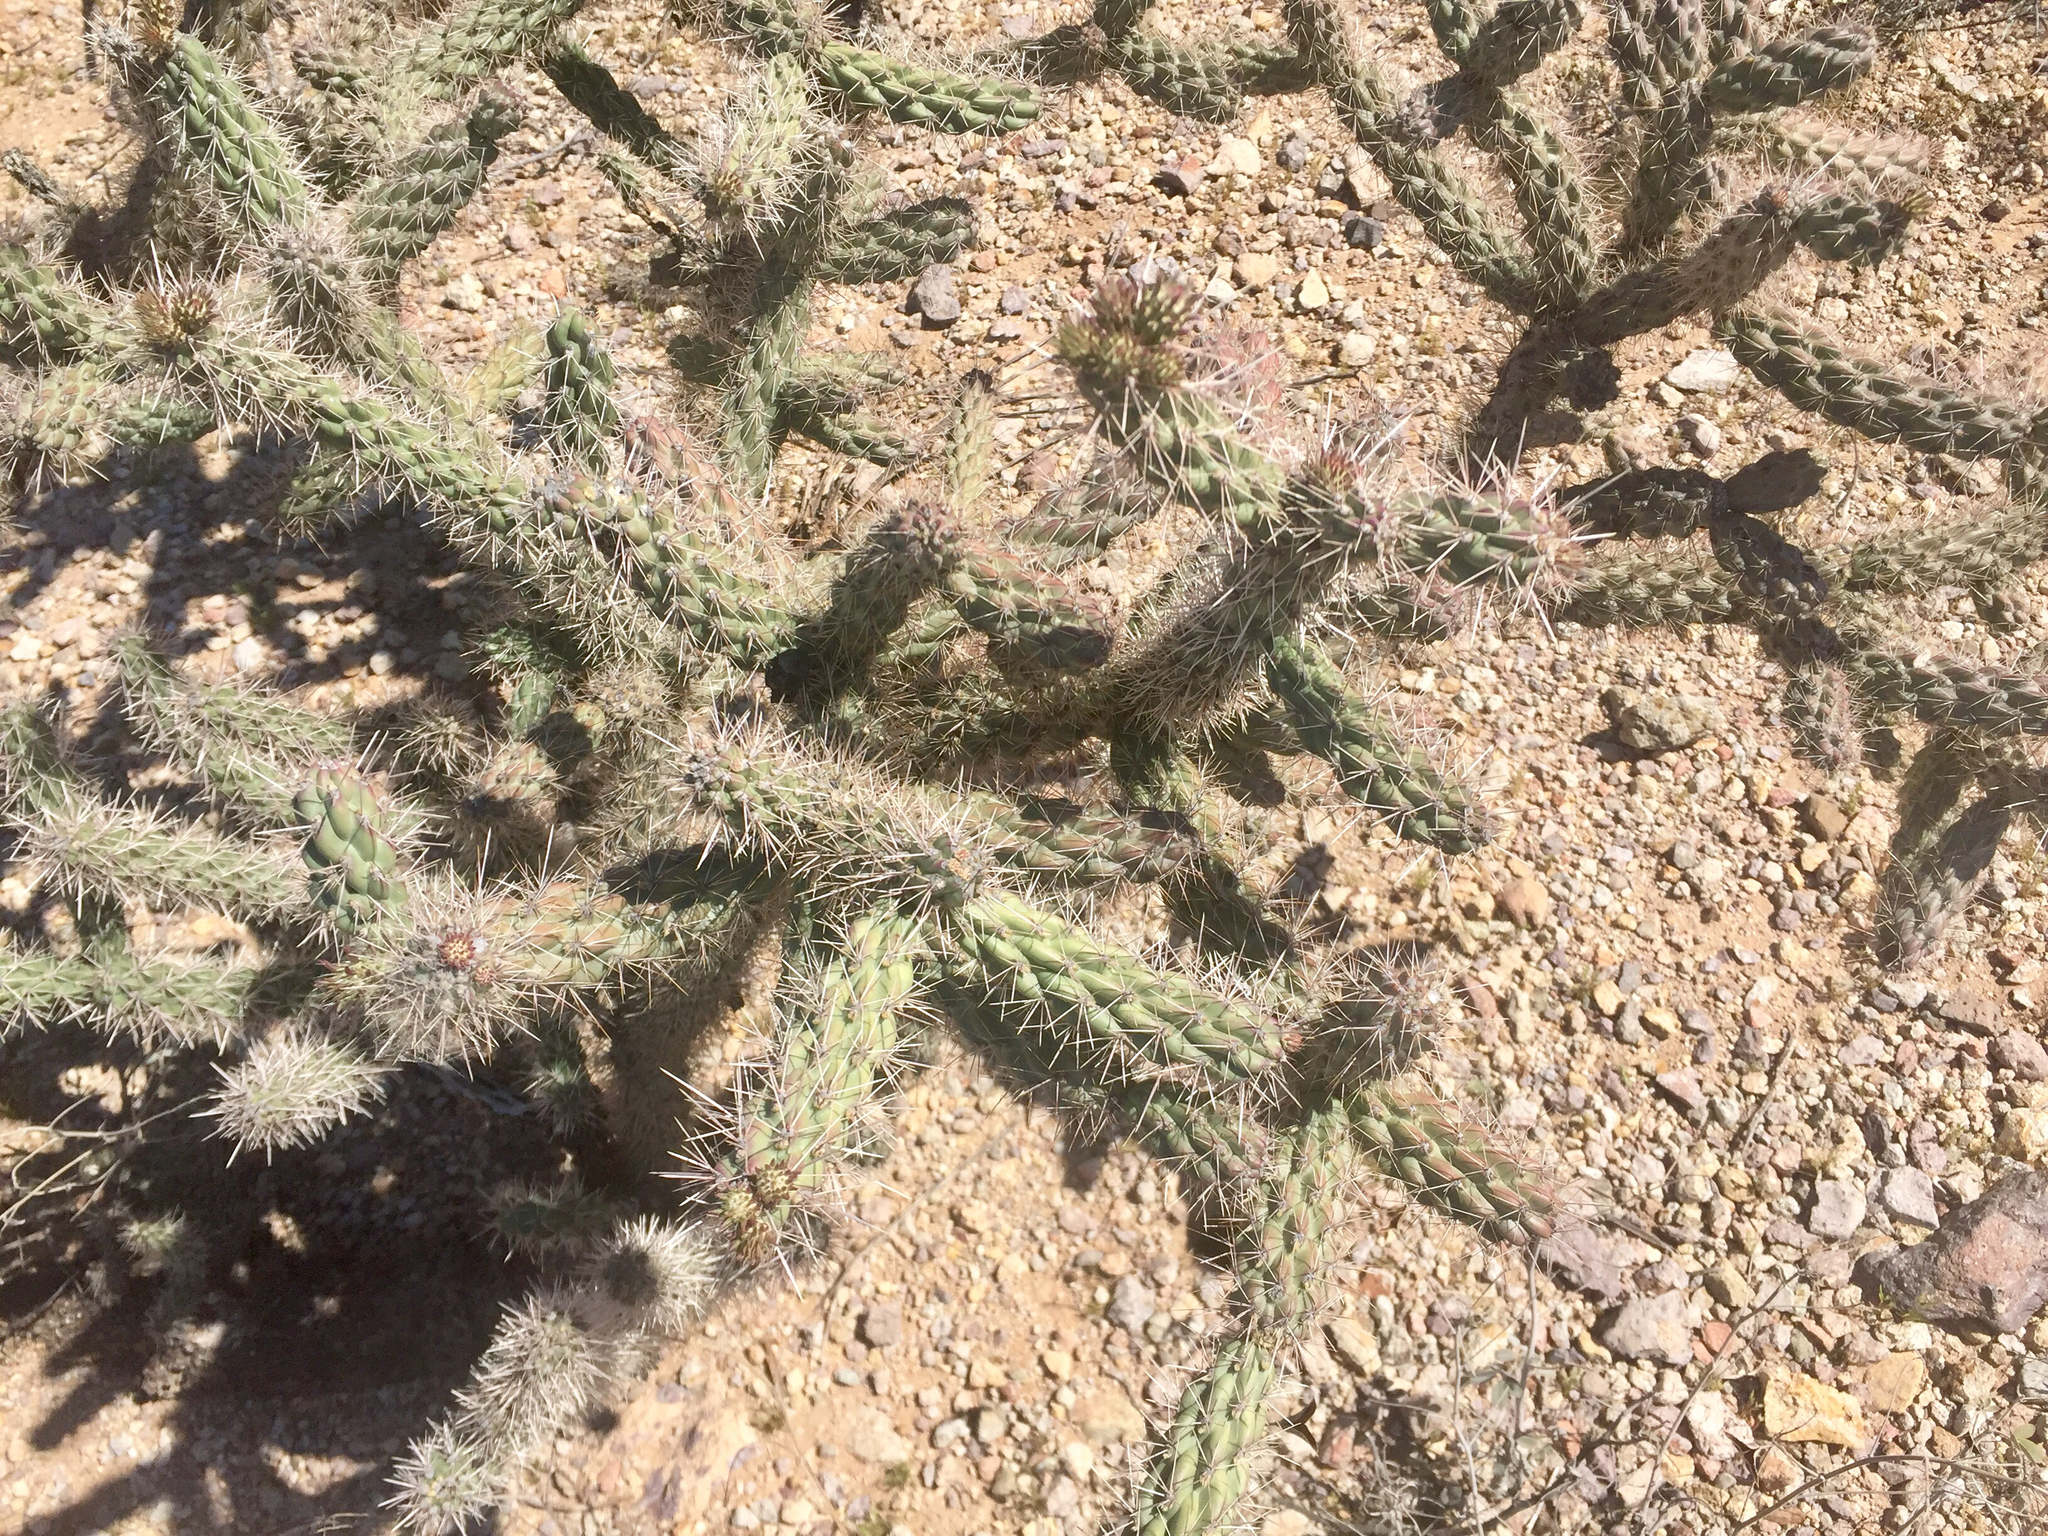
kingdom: Plantae
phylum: Tracheophyta
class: Magnoliopsida
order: Caryophyllales
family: Cactaceae
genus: Cylindropuntia
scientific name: Cylindropuntia imbricata
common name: Candelabrum cactus
